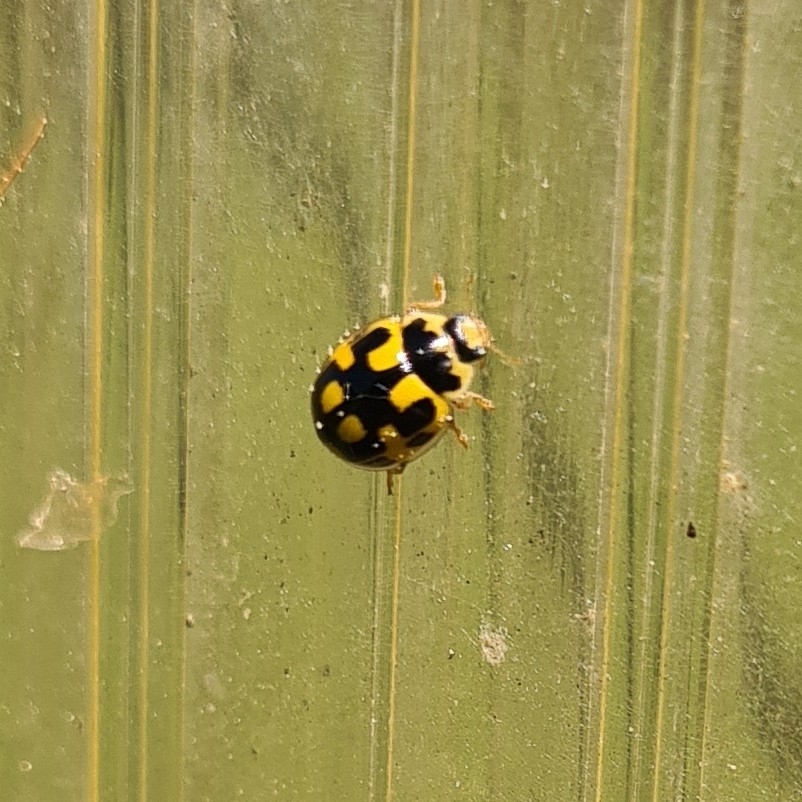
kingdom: Animalia
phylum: Arthropoda
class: Insecta
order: Coleoptera
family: Coccinellidae
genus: Propylaea
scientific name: Propylaea quatuordecimpunctata
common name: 14-spotted ladybird beetle
